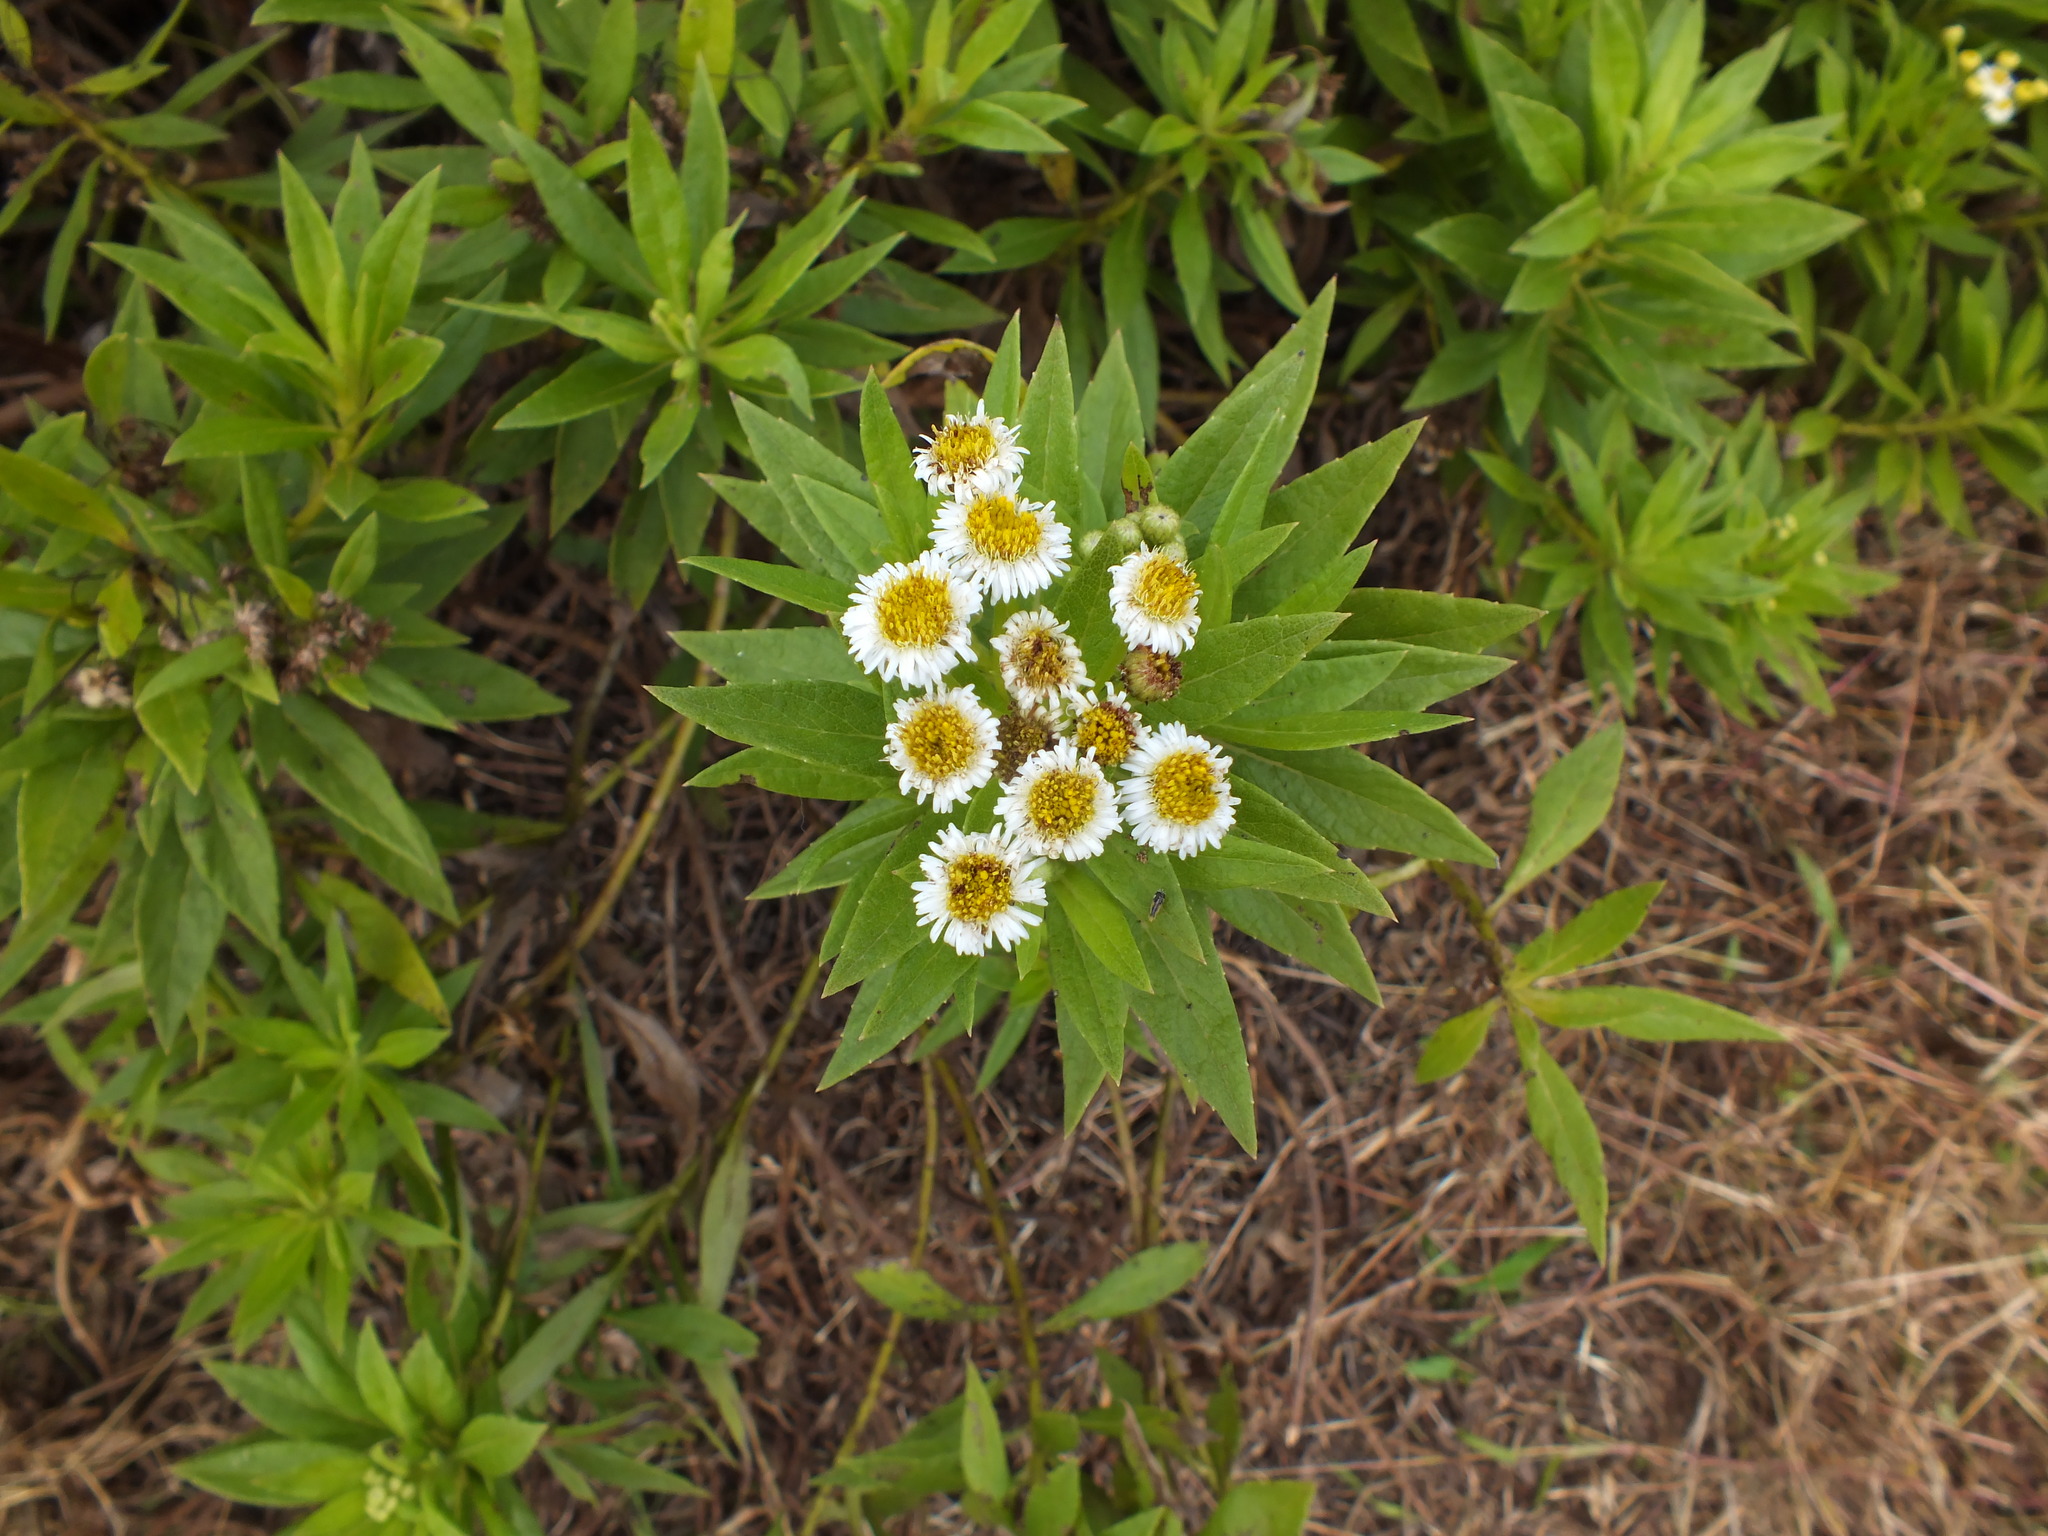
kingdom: Plantae
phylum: Tracheophyta
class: Magnoliopsida
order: Asterales
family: Asteraceae
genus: Erigeron
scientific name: Erigeron lancifolius
